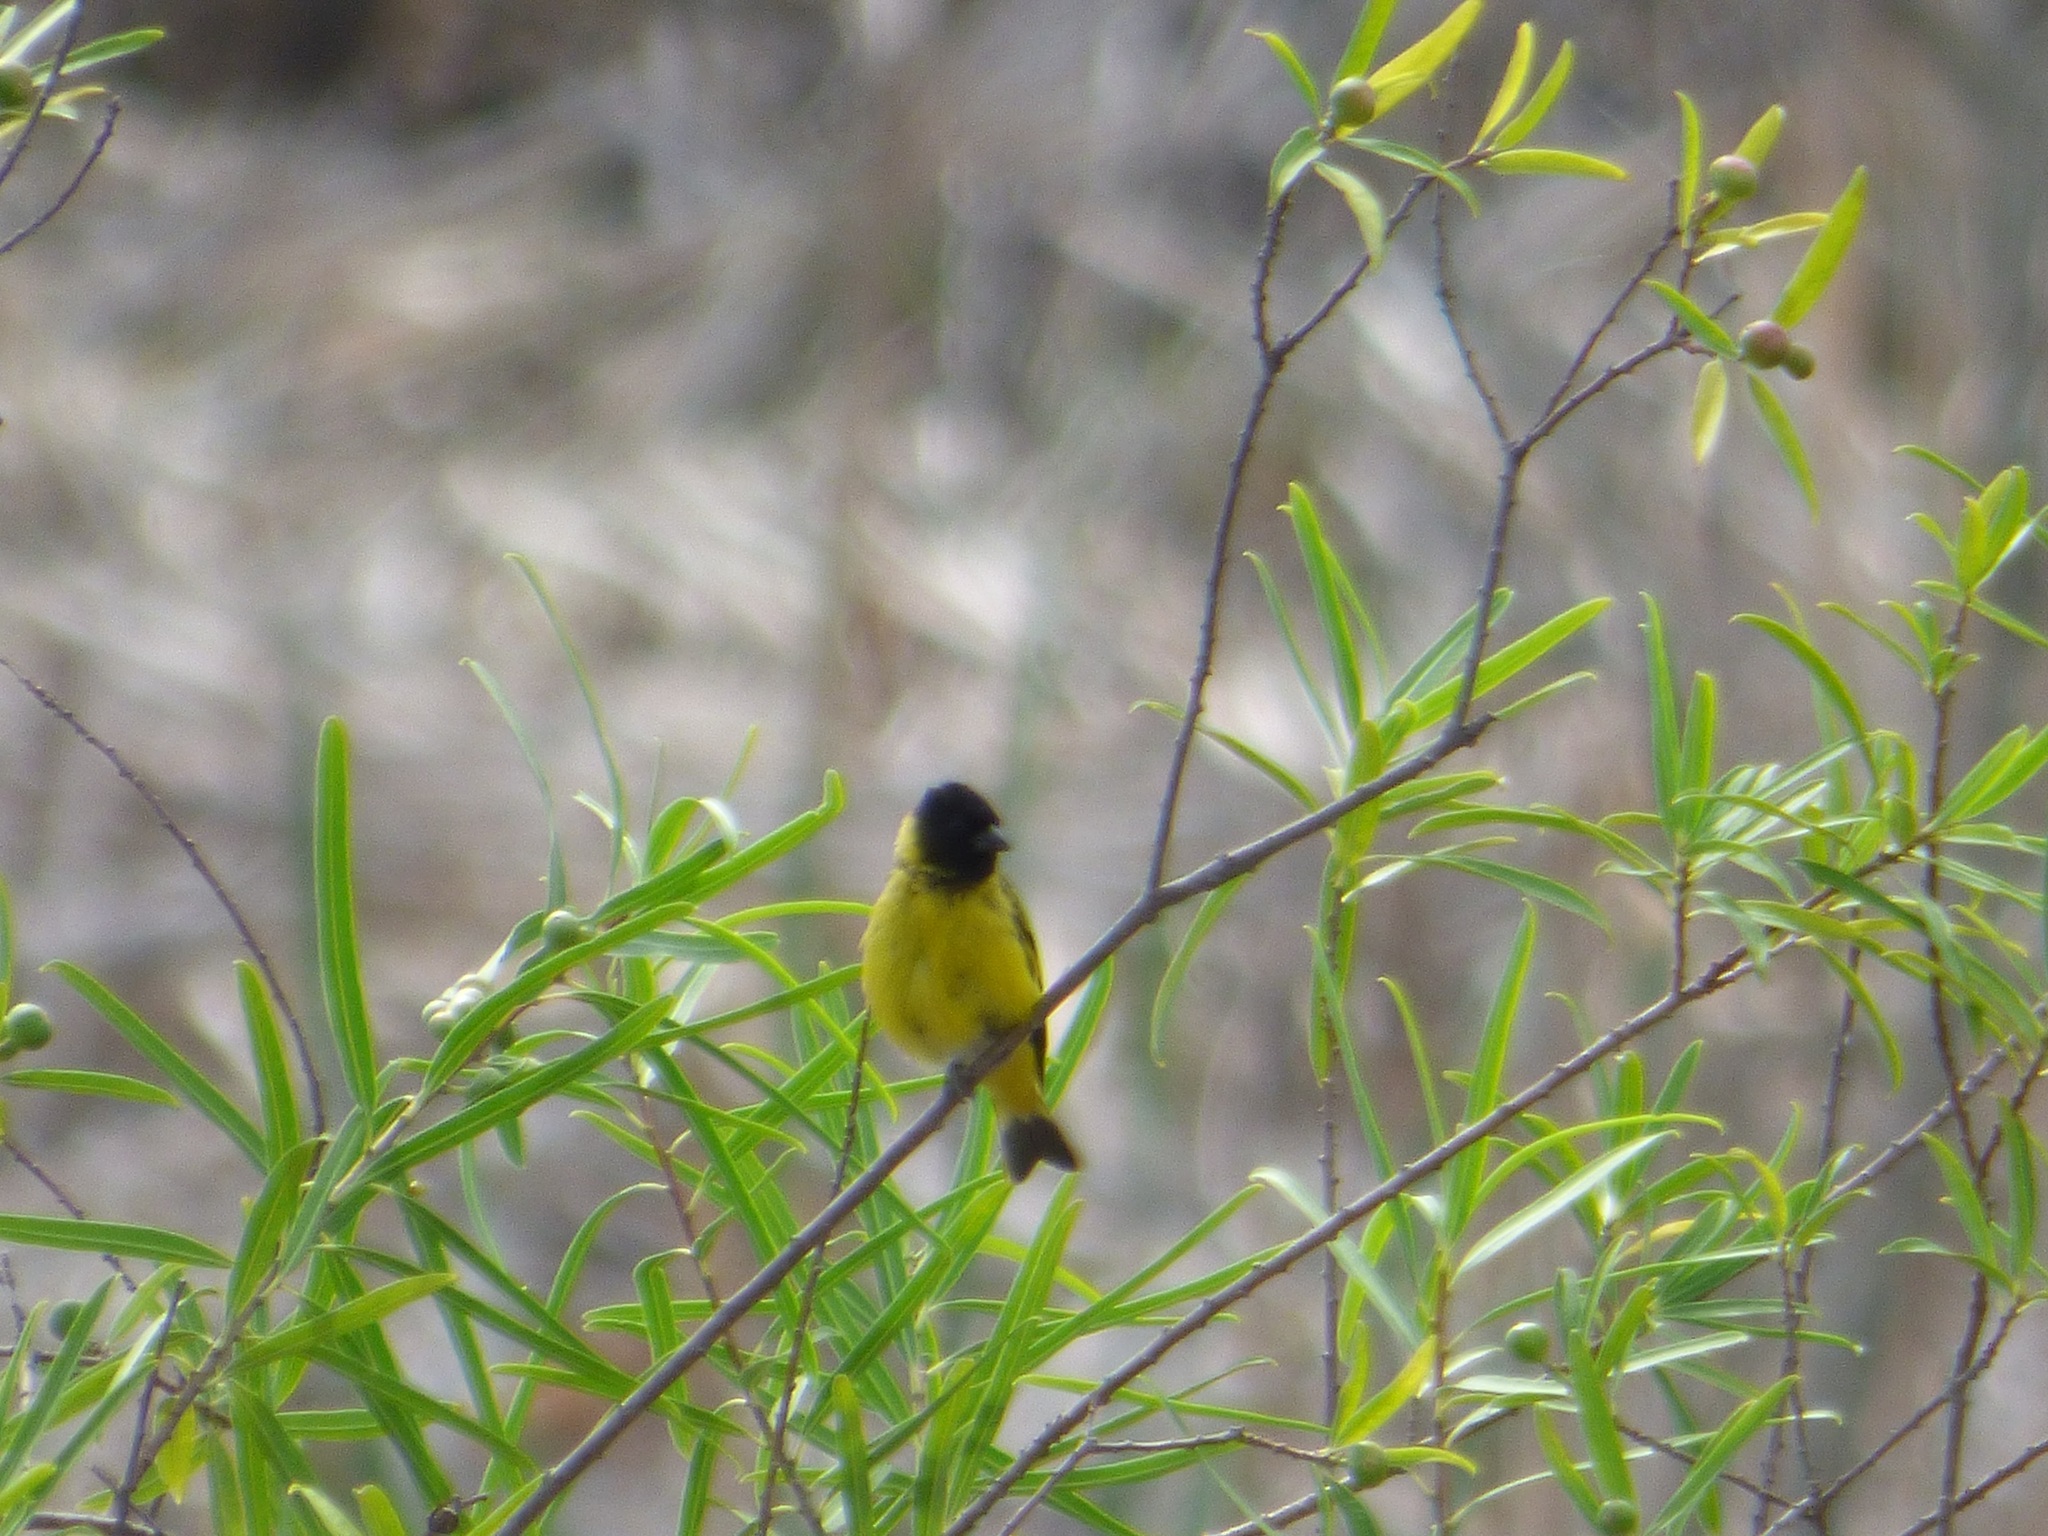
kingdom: Animalia
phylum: Chordata
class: Aves
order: Passeriformes
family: Fringillidae
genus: Spinus
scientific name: Spinus magellanicus
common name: Hooded siskin
